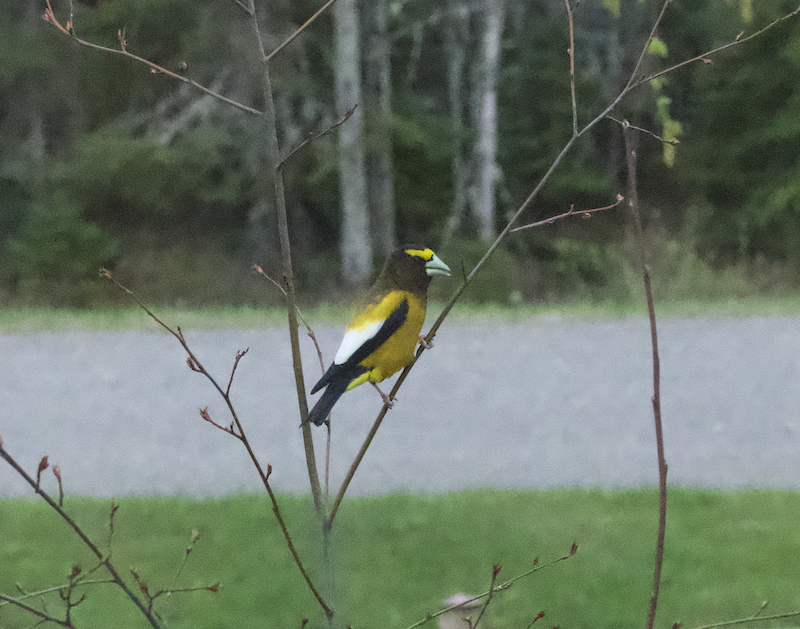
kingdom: Animalia
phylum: Chordata
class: Aves
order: Passeriformes
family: Fringillidae
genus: Hesperiphona
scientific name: Hesperiphona vespertina
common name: Evening grosbeak
